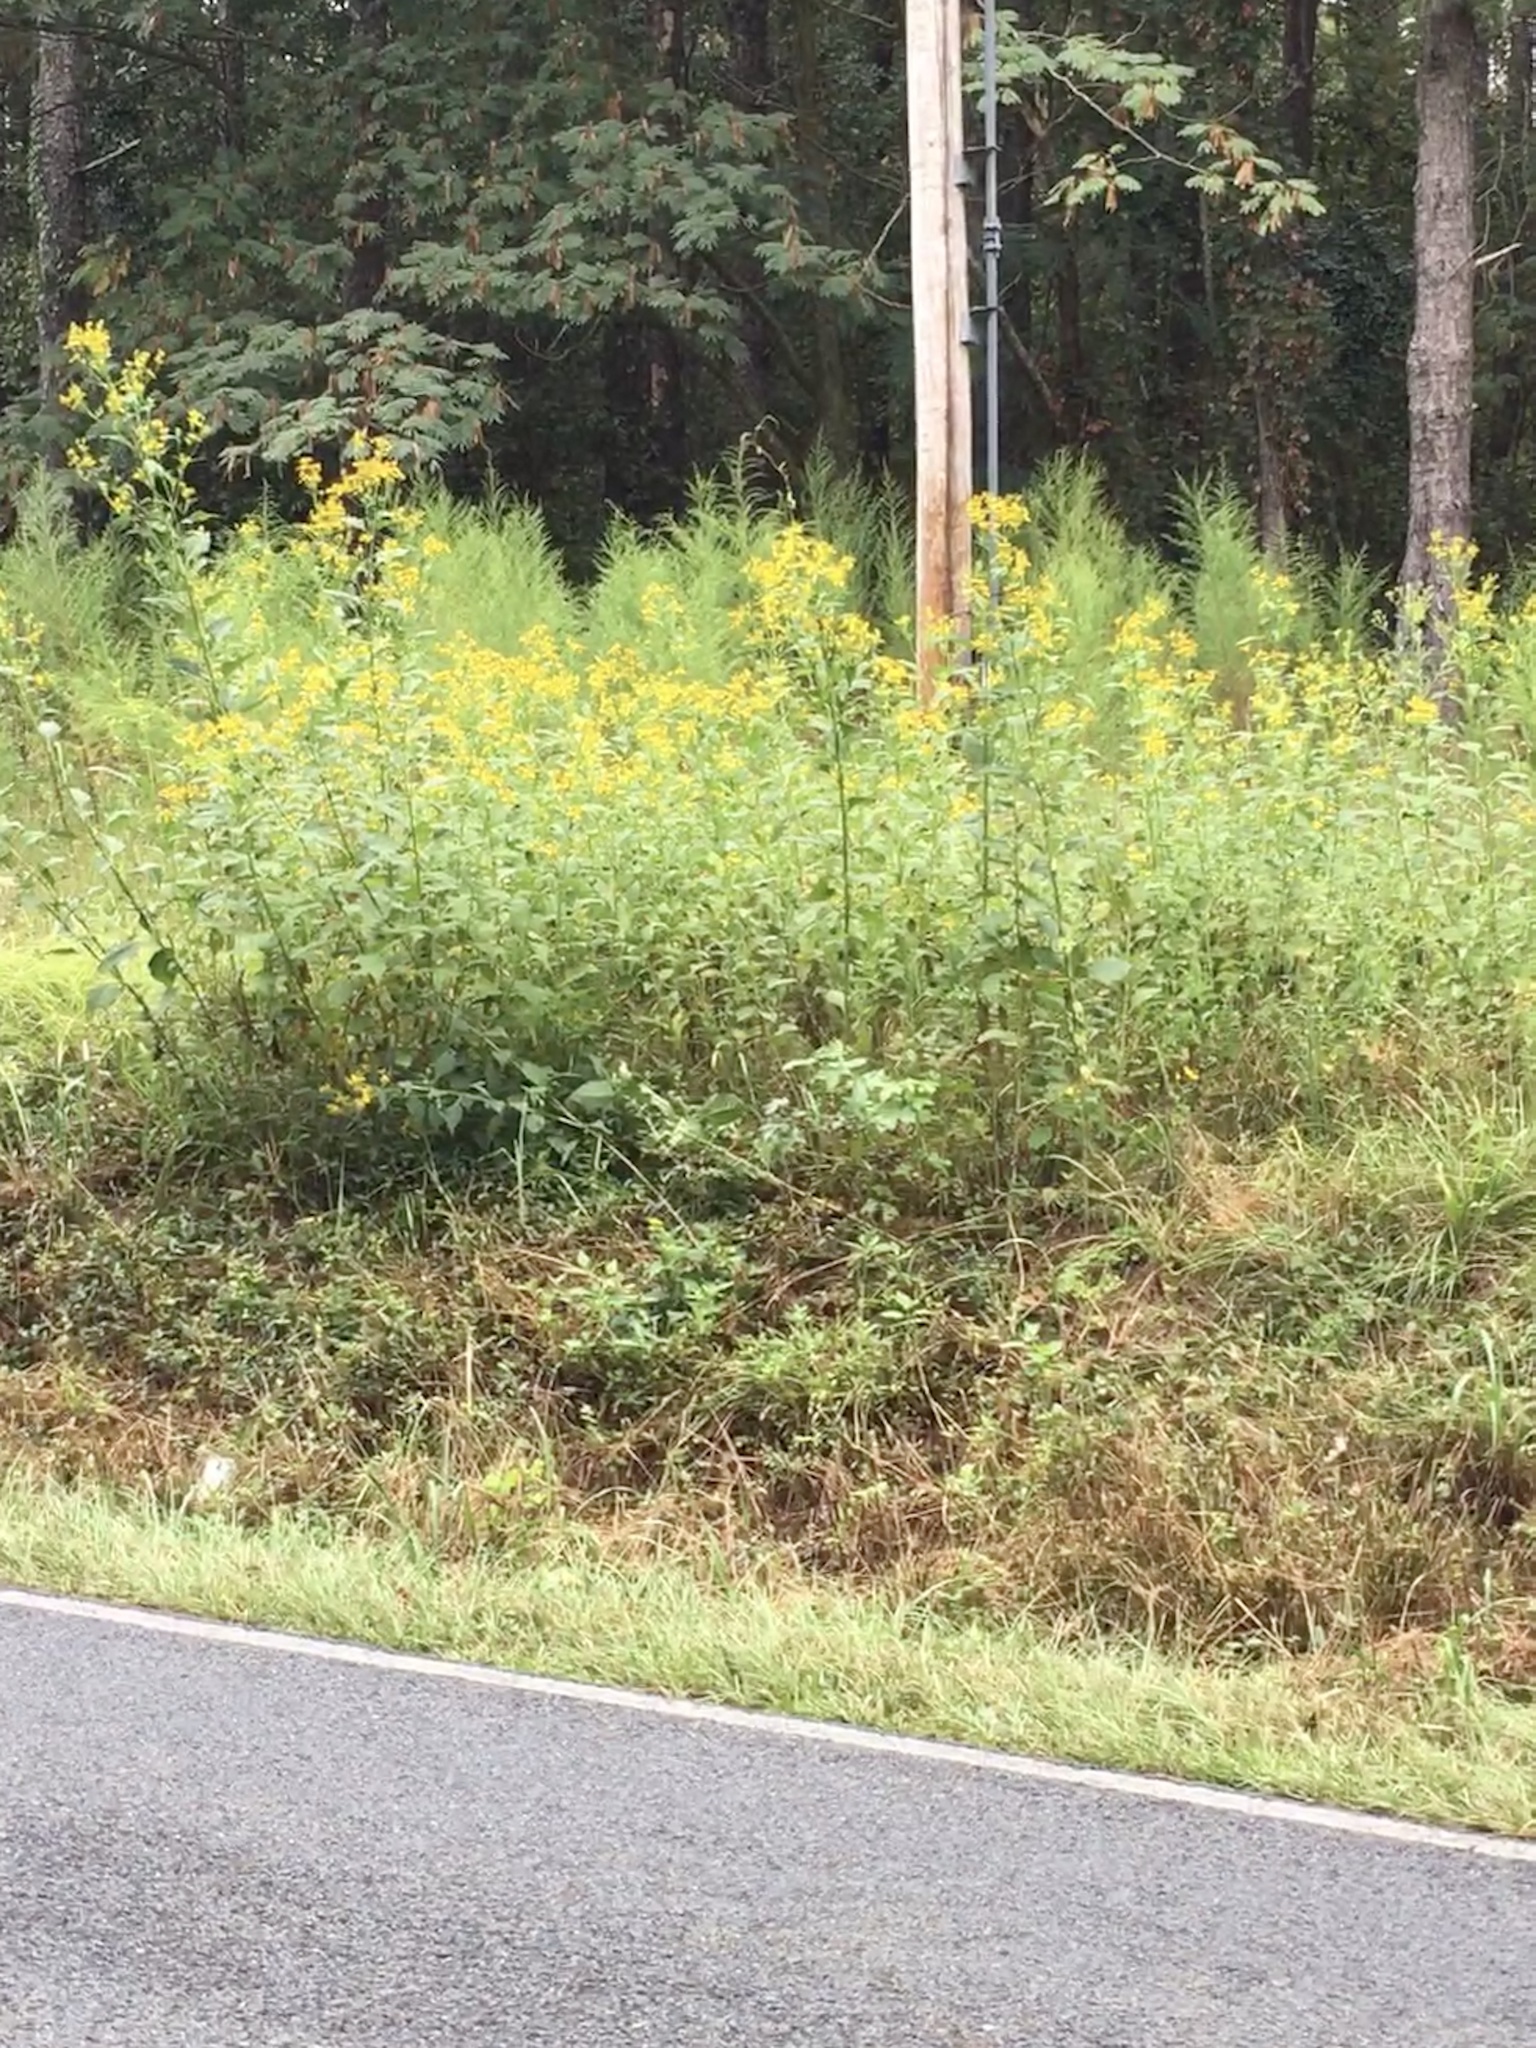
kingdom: Plantae
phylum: Tracheophyta
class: Magnoliopsida
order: Asterales
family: Asteraceae
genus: Verbesina
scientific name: Verbesina occidentalis
